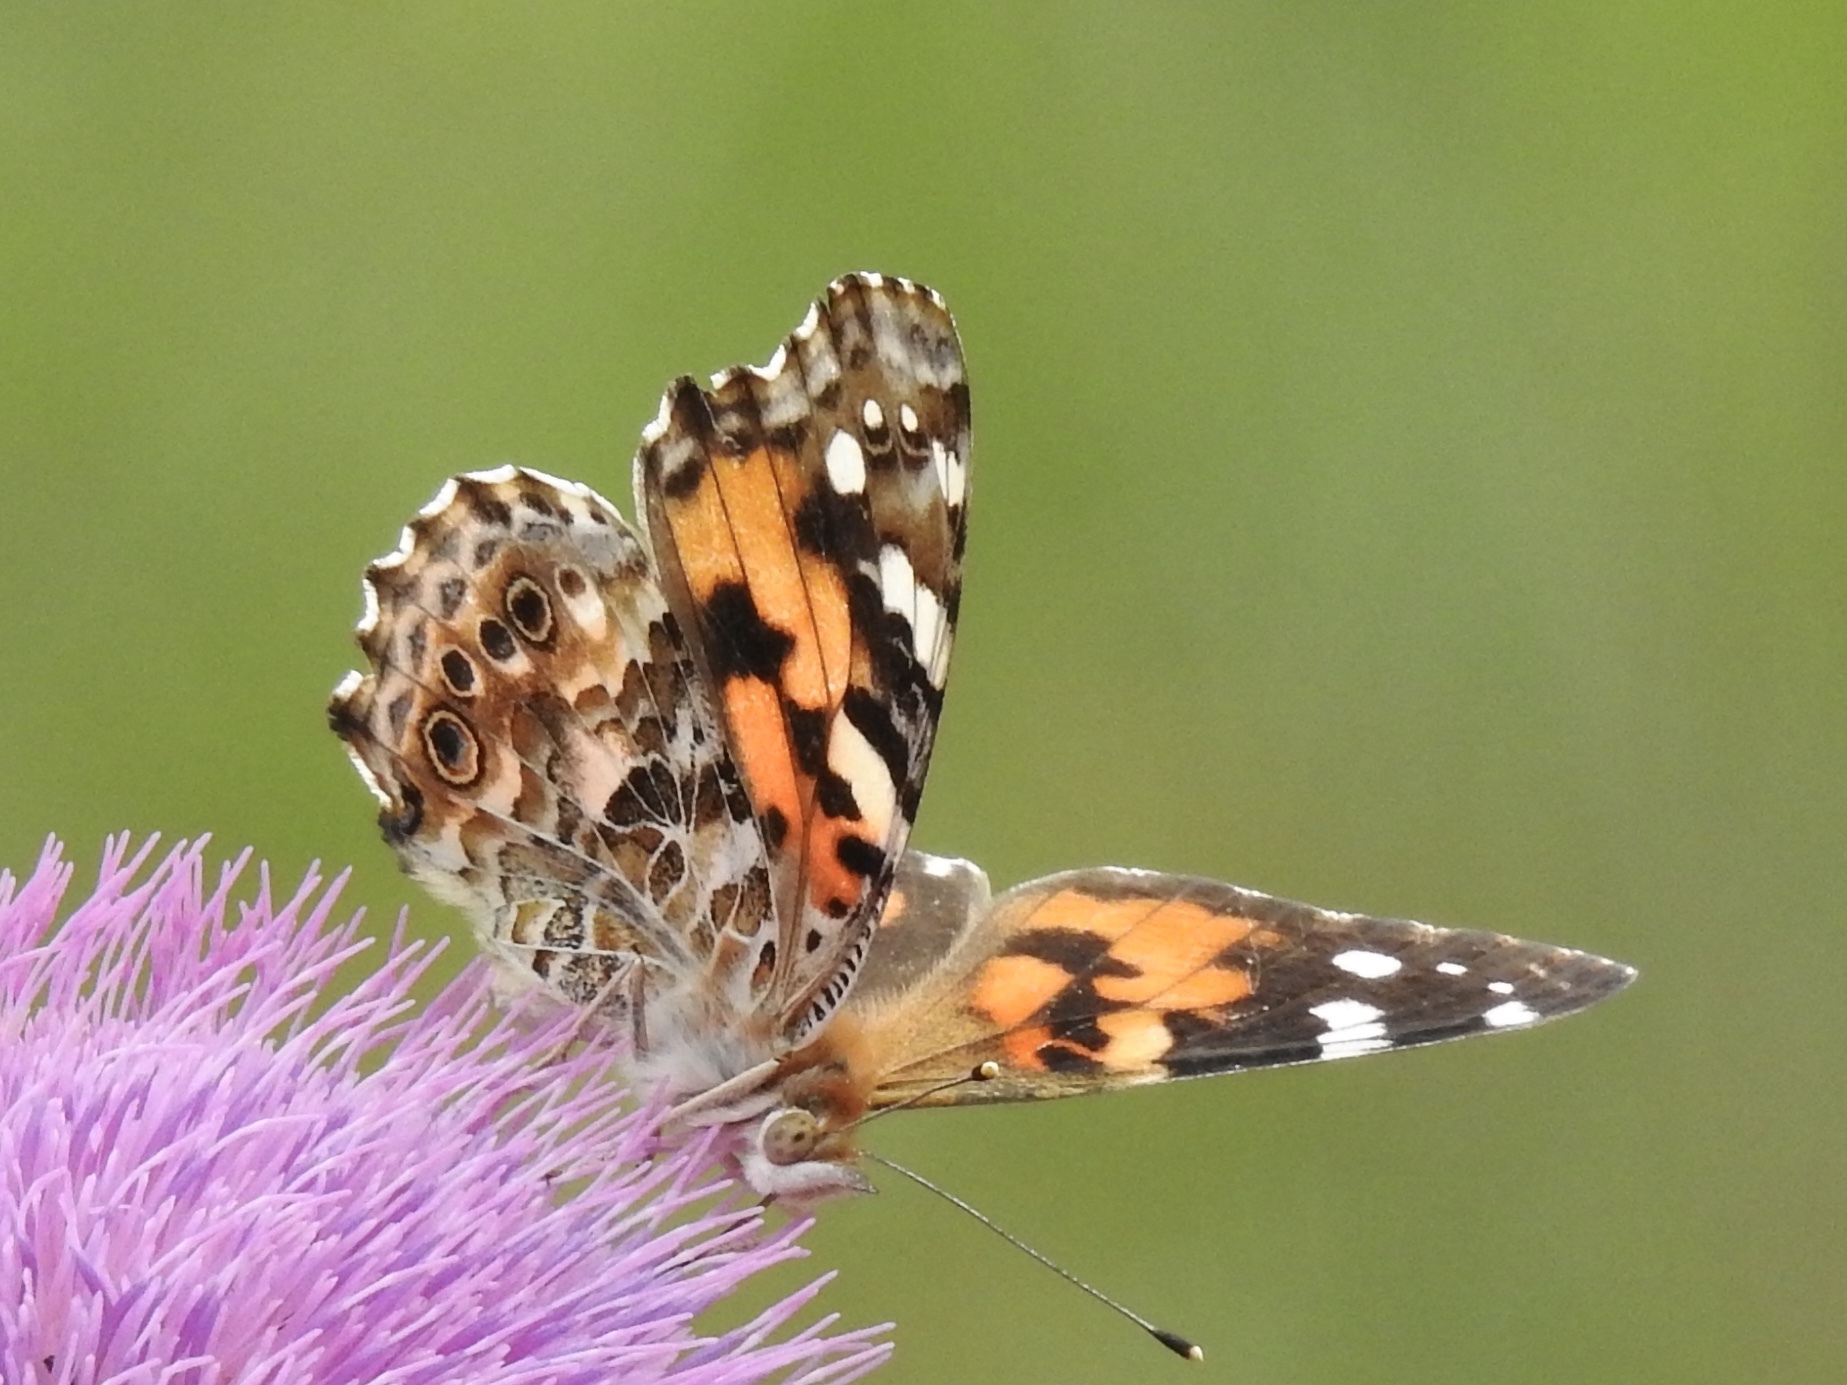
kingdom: Animalia
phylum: Arthropoda
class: Insecta
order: Lepidoptera
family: Nymphalidae
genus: Vanessa
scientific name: Vanessa cardui
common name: Painted lady
